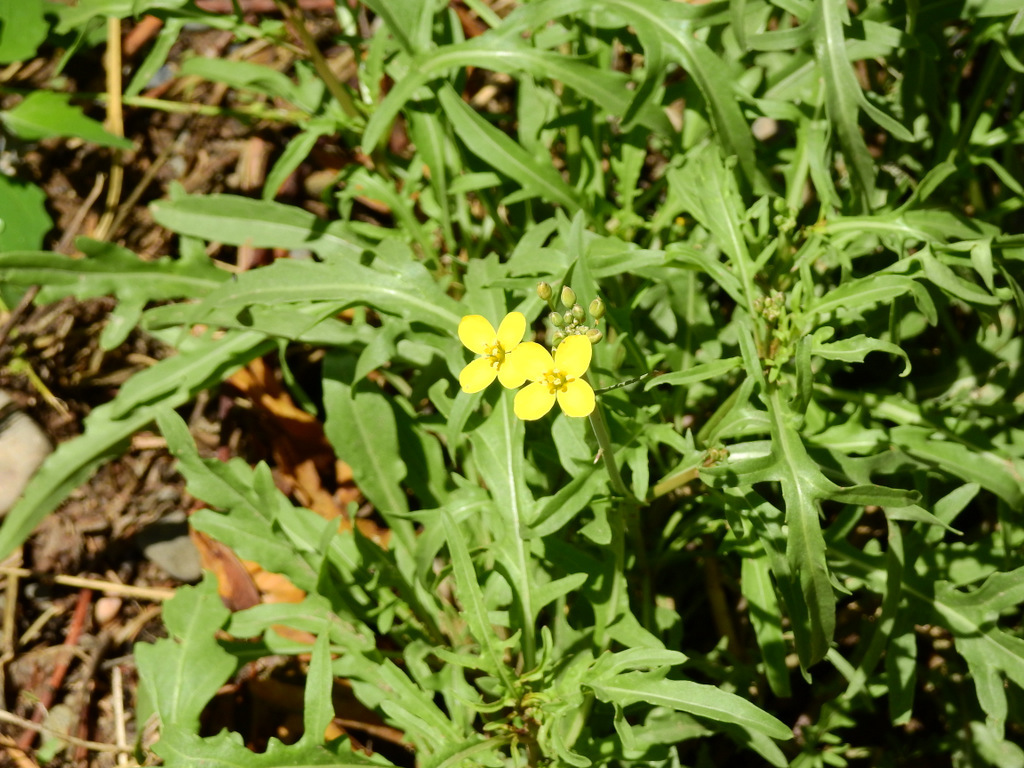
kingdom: Plantae
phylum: Tracheophyta
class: Magnoliopsida
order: Brassicales
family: Brassicaceae
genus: Diplotaxis
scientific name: Diplotaxis tenuifolia
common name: Perennial wall-rocket
